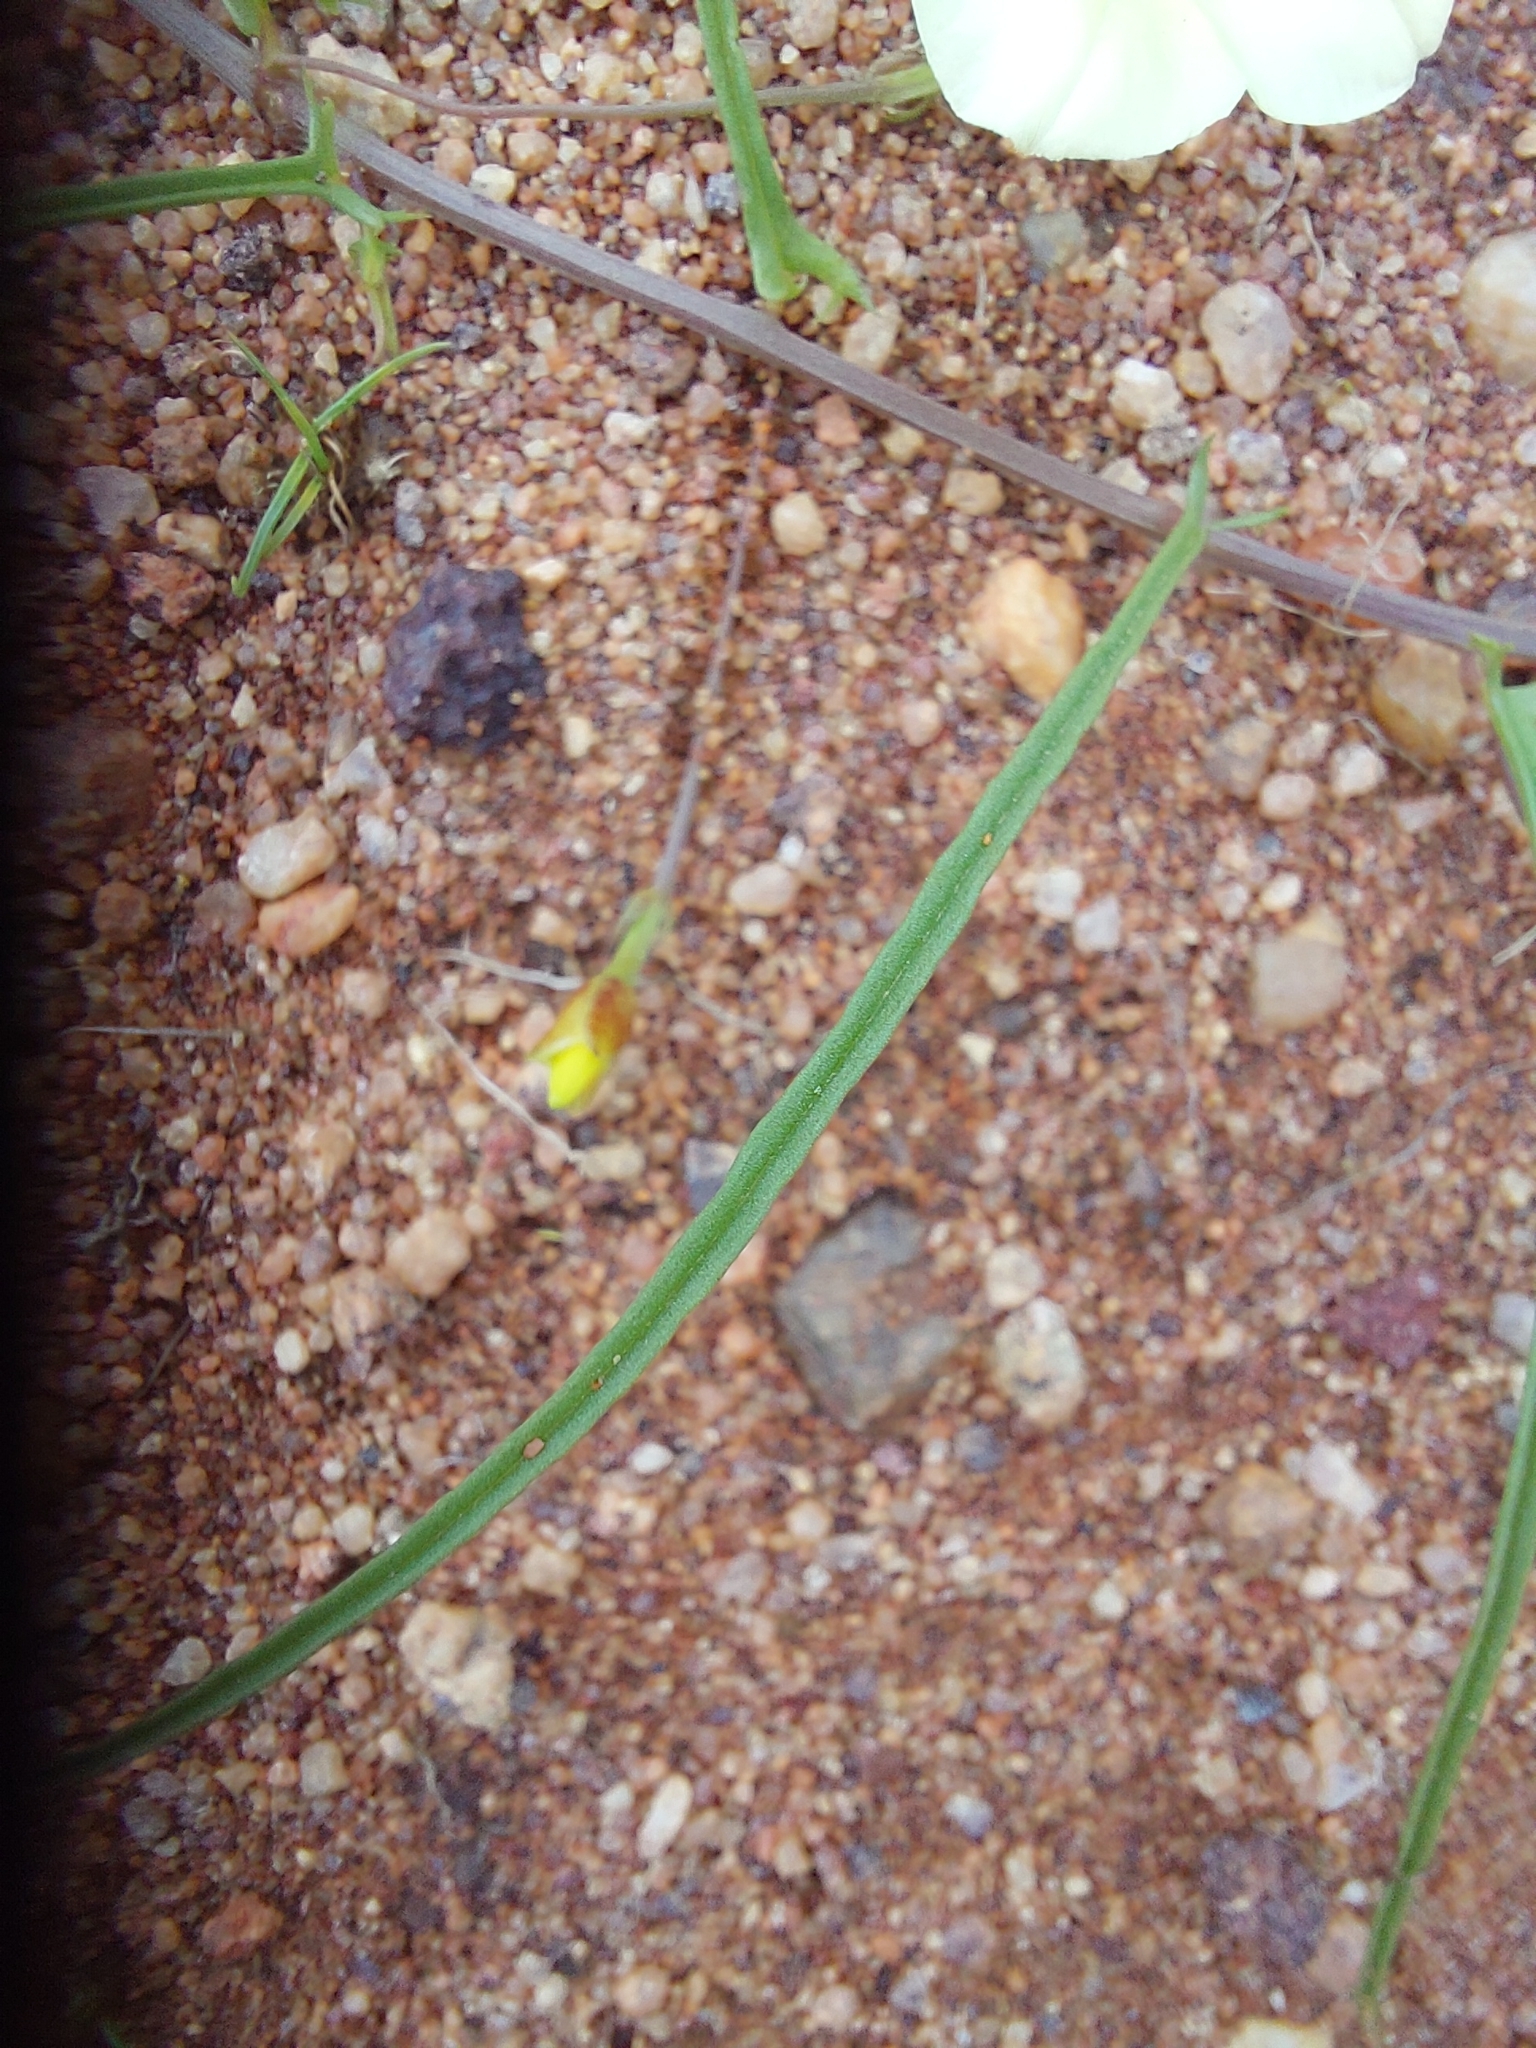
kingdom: Plantae
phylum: Tracheophyta
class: Magnoliopsida
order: Solanales
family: Convolvulaceae
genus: Xenostegia
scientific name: Xenostegia tridentata
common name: African morningvine
